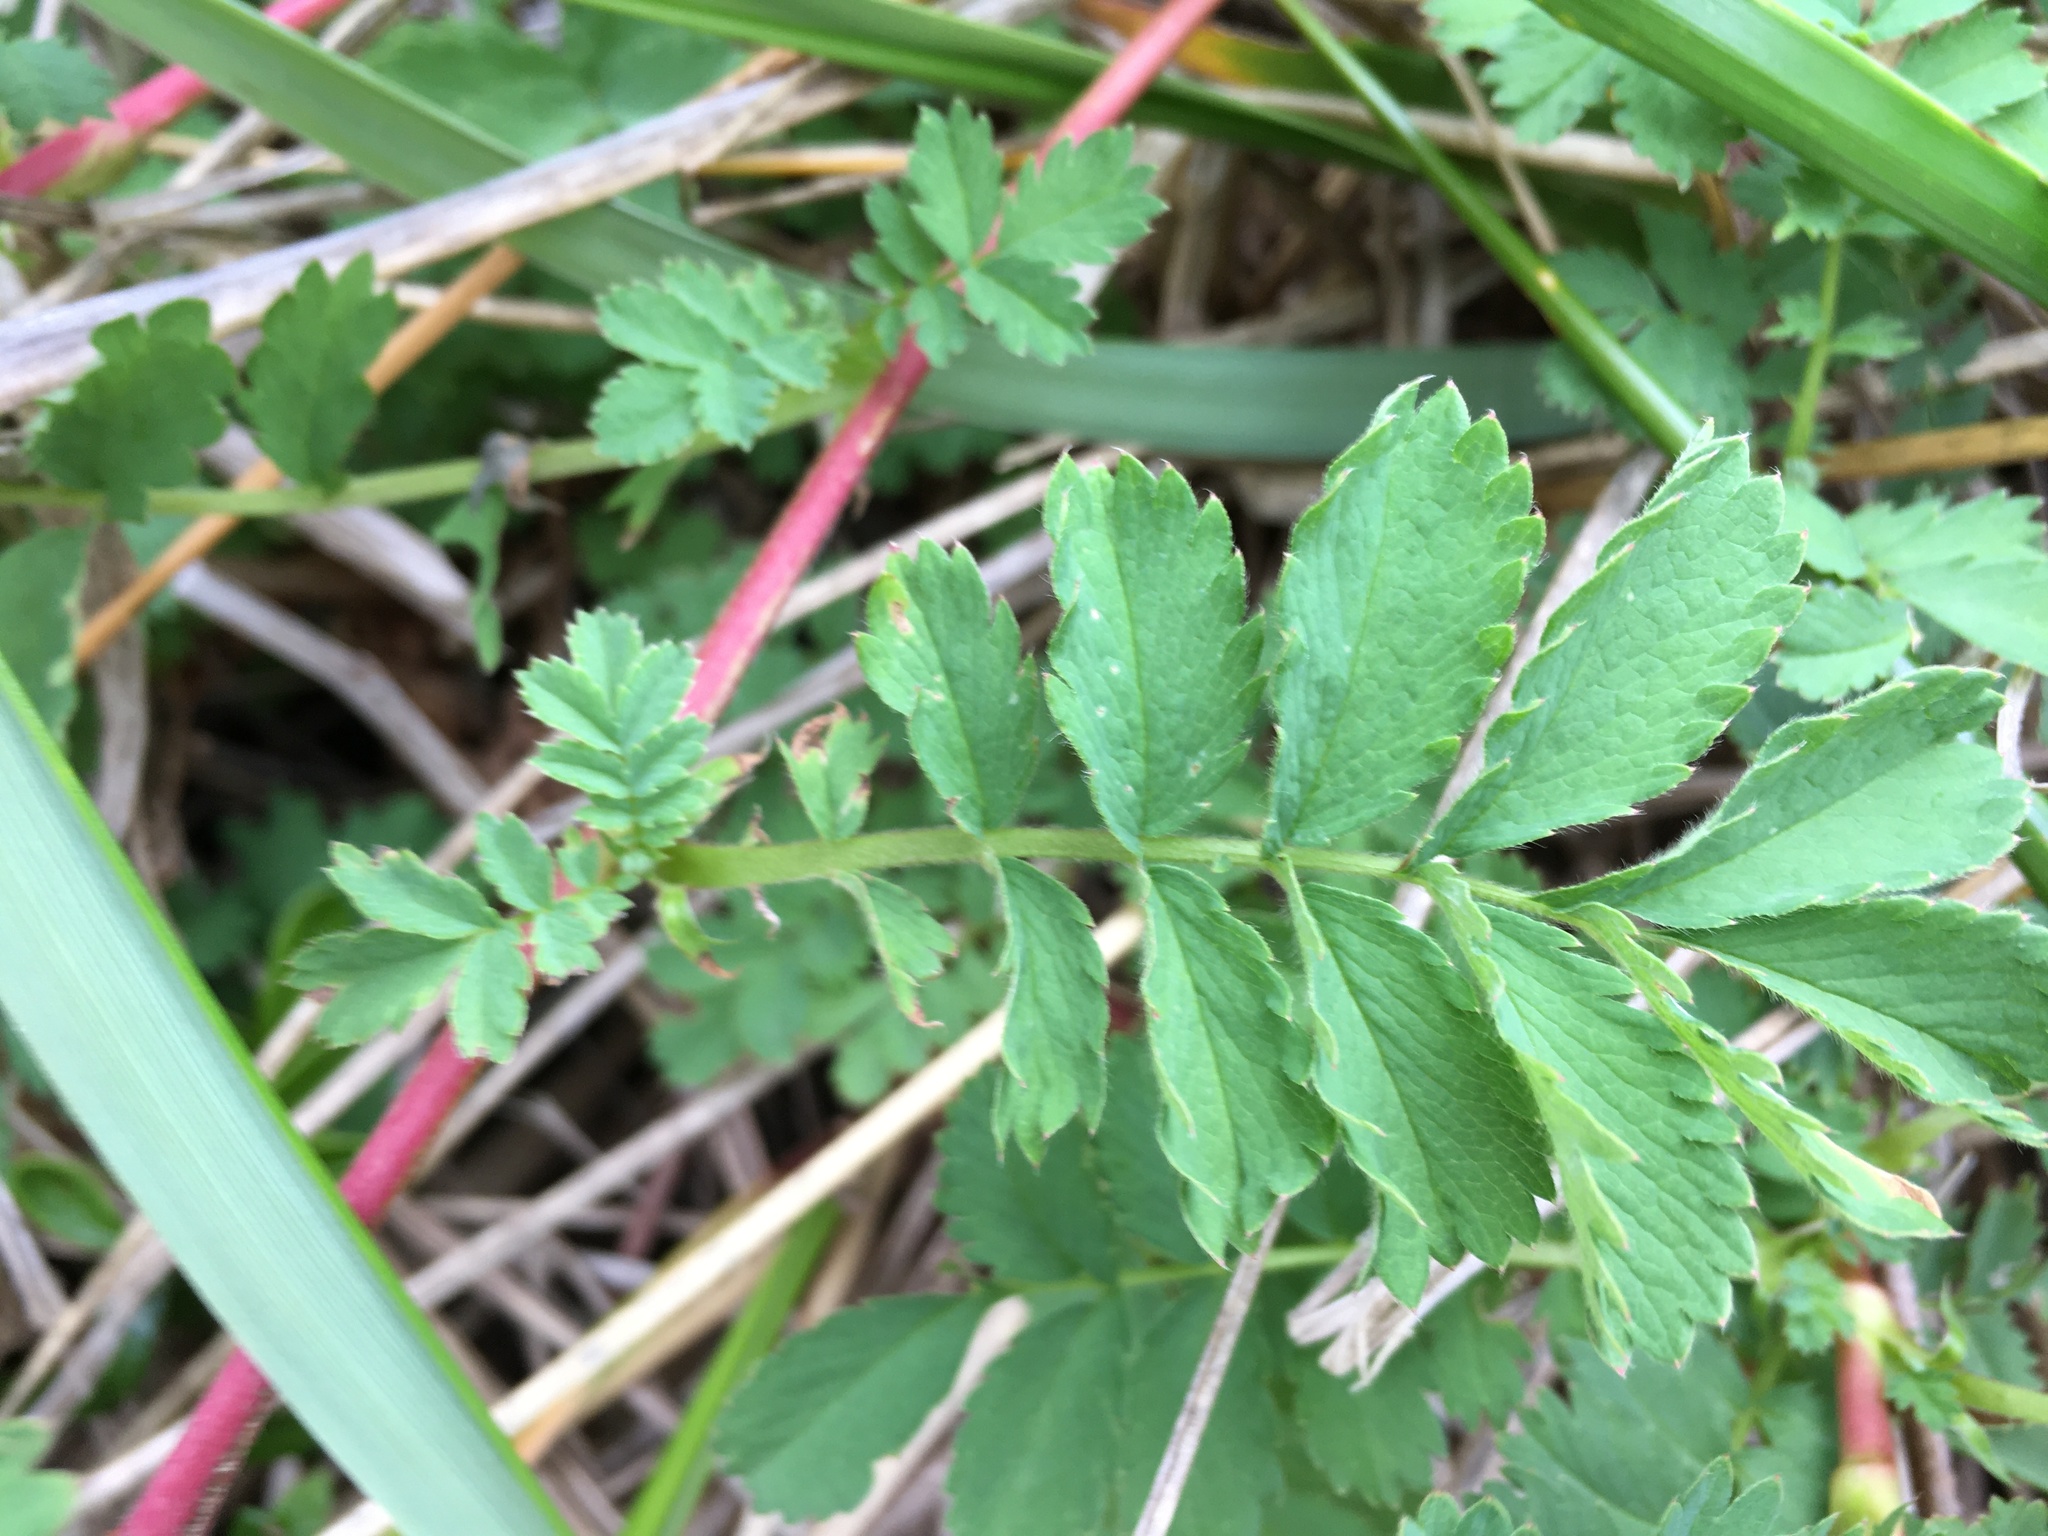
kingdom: Plantae
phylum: Tracheophyta
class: Magnoliopsida
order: Rosales
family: Rosaceae
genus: Acaena
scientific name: Acaena magellanica
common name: New zealand burr
